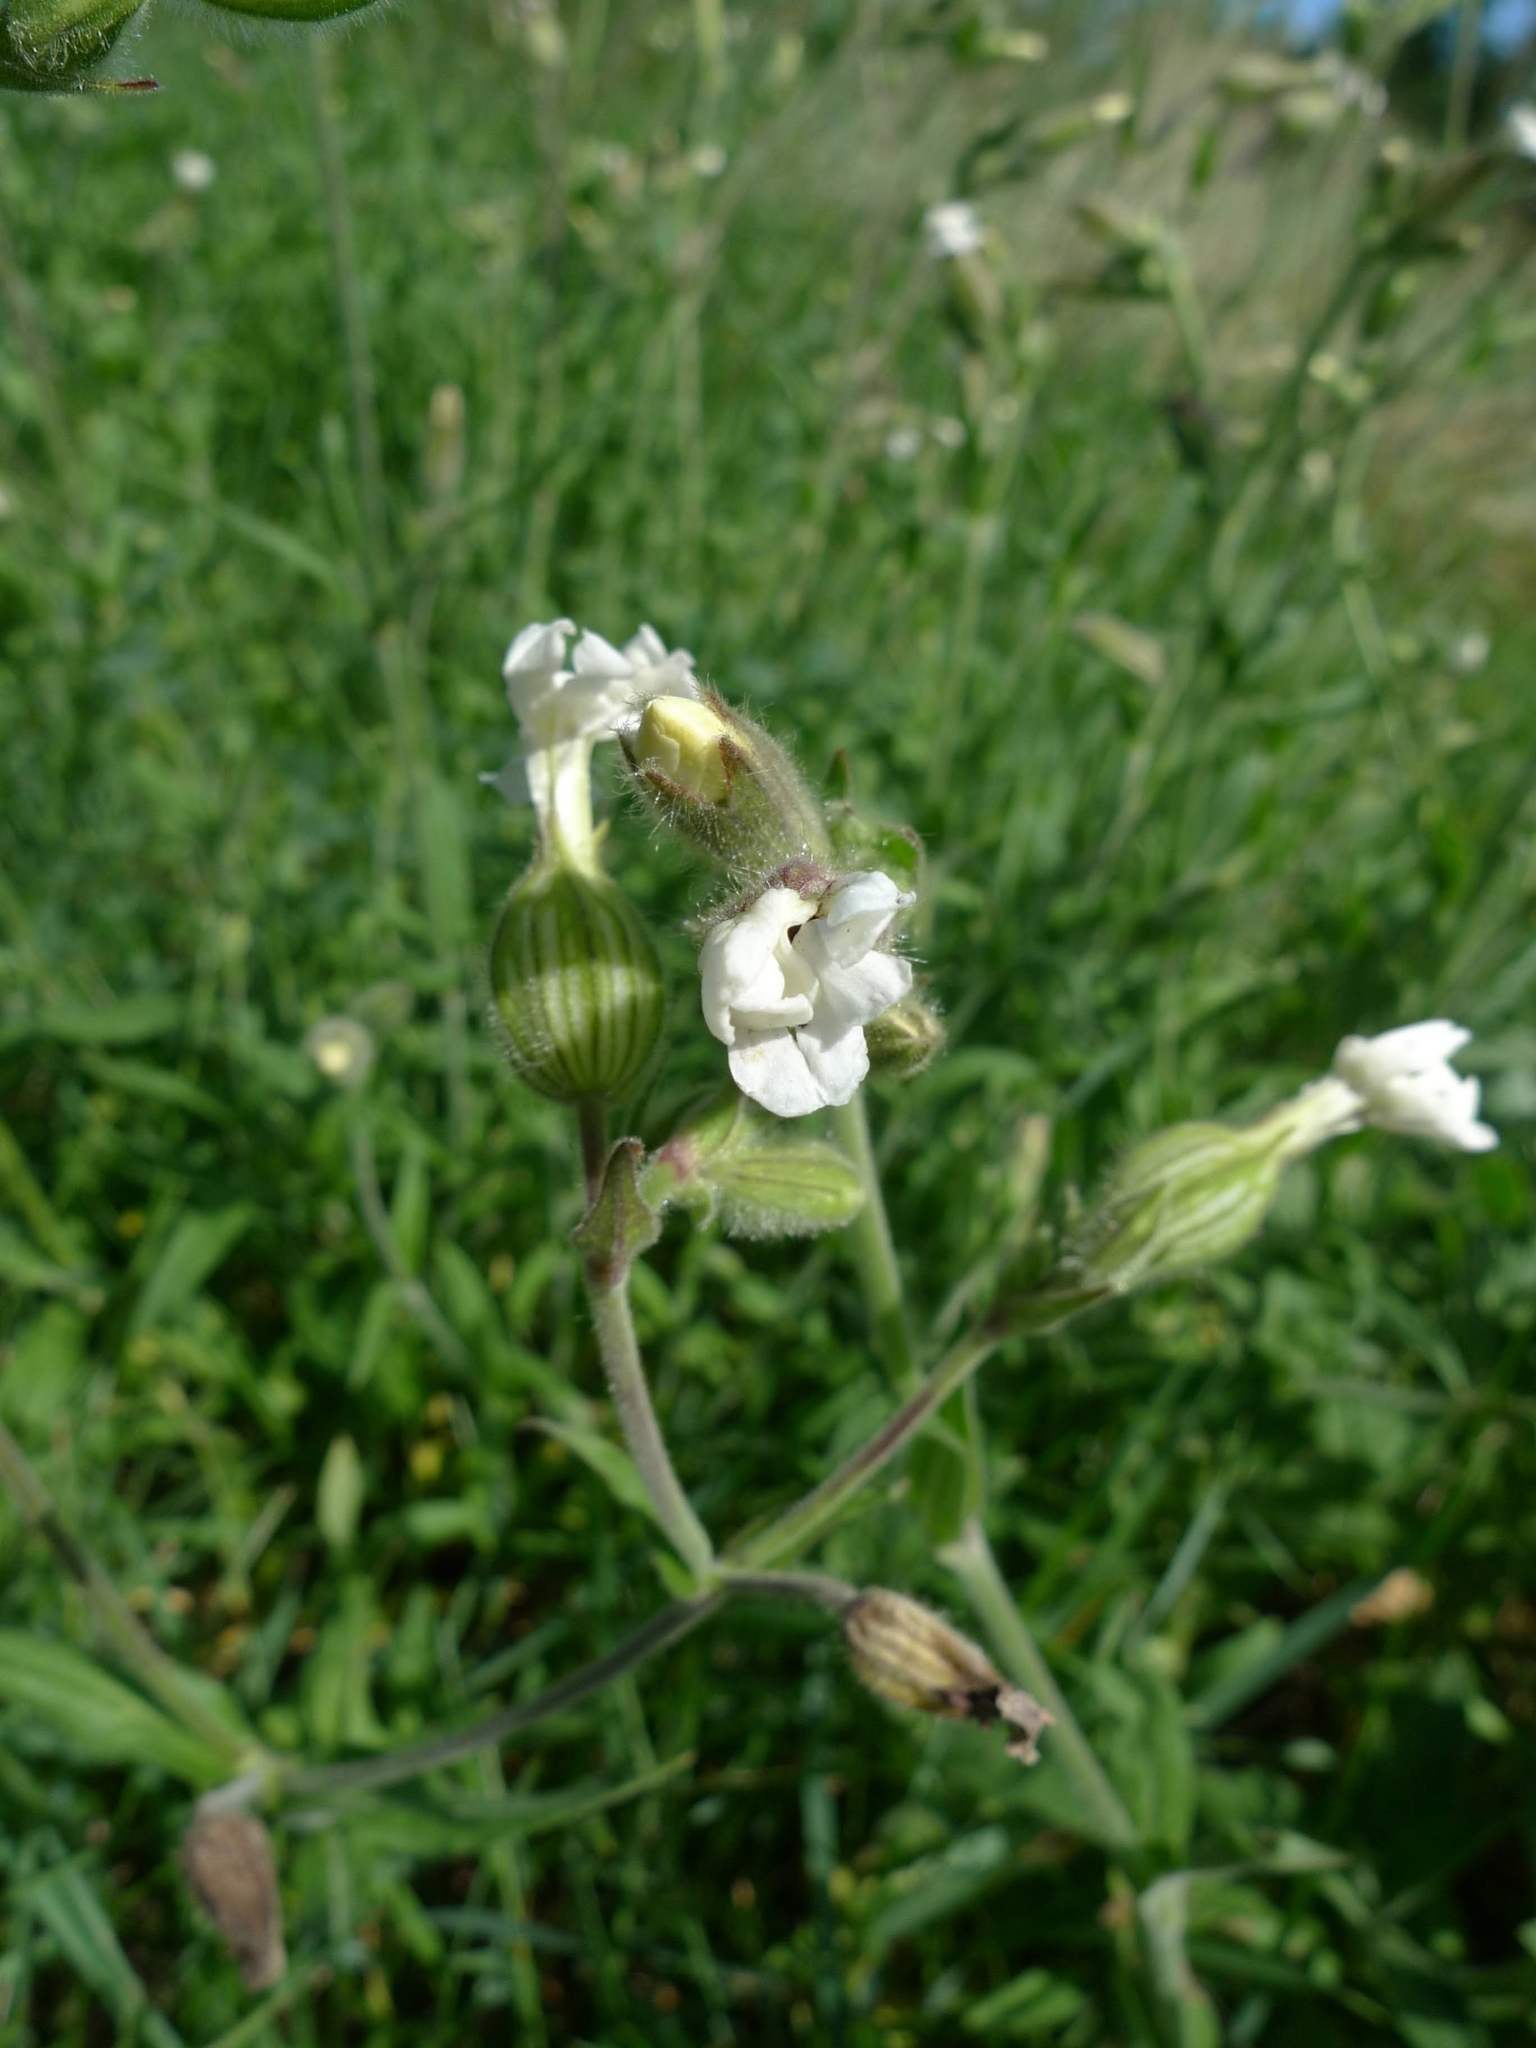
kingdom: Plantae
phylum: Tracheophyta
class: Magnoliopsida
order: Caryophyllales
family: Caryophyllaceae
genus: Silene
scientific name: Silene latifolia
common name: White campion
